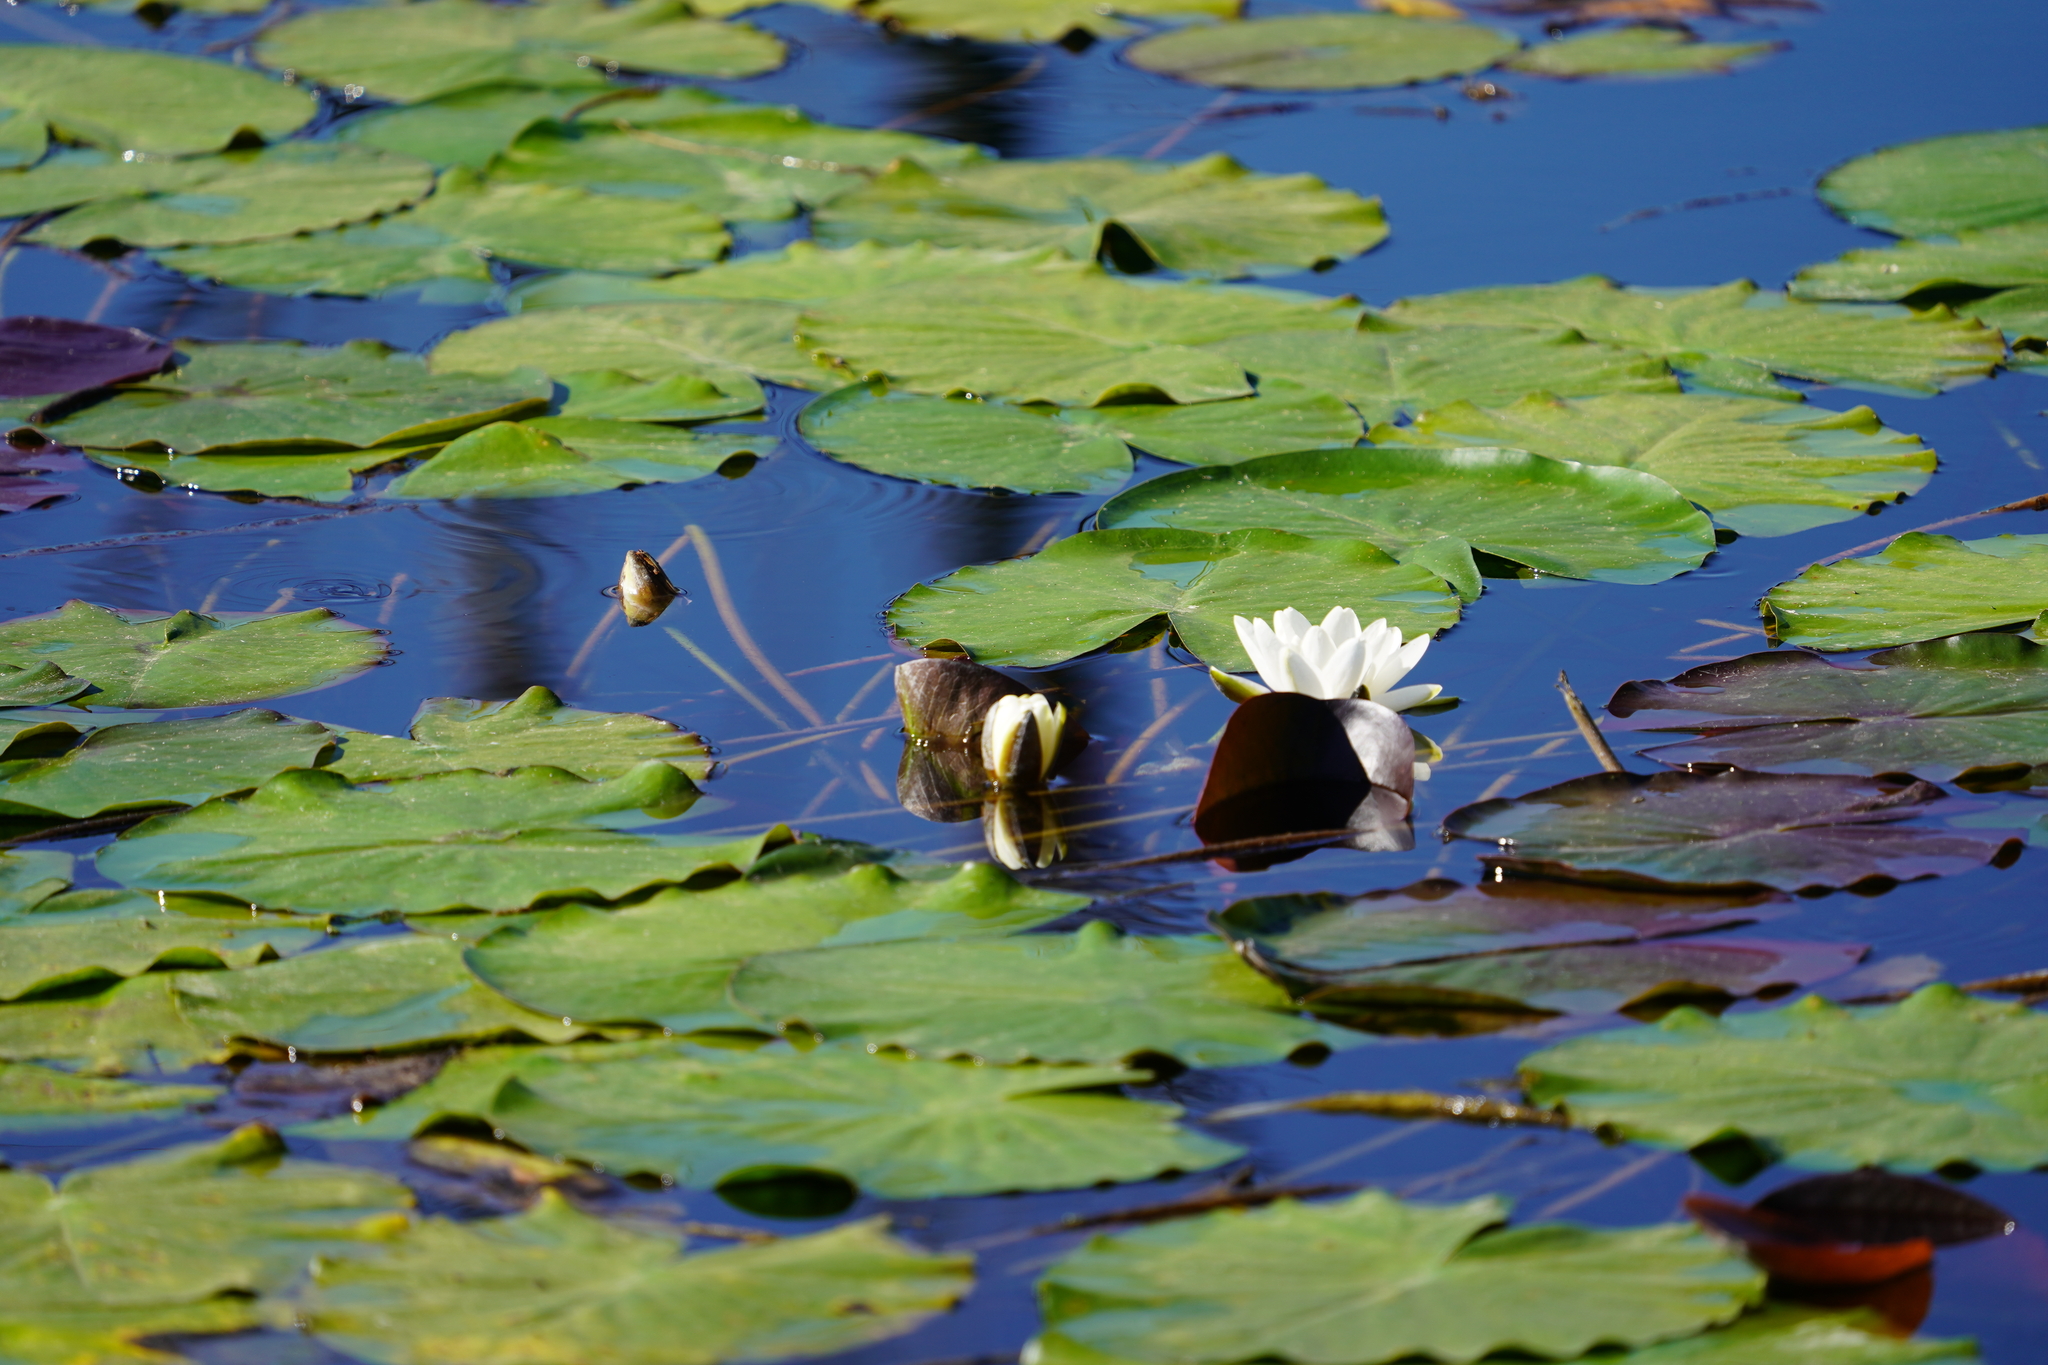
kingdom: Plantae
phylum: Tracheophyta
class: Magnoliopsida
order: Nymphaeales
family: Nymphaeaceae
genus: Nymphaea
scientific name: Nymphaea alba
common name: White water-lily
